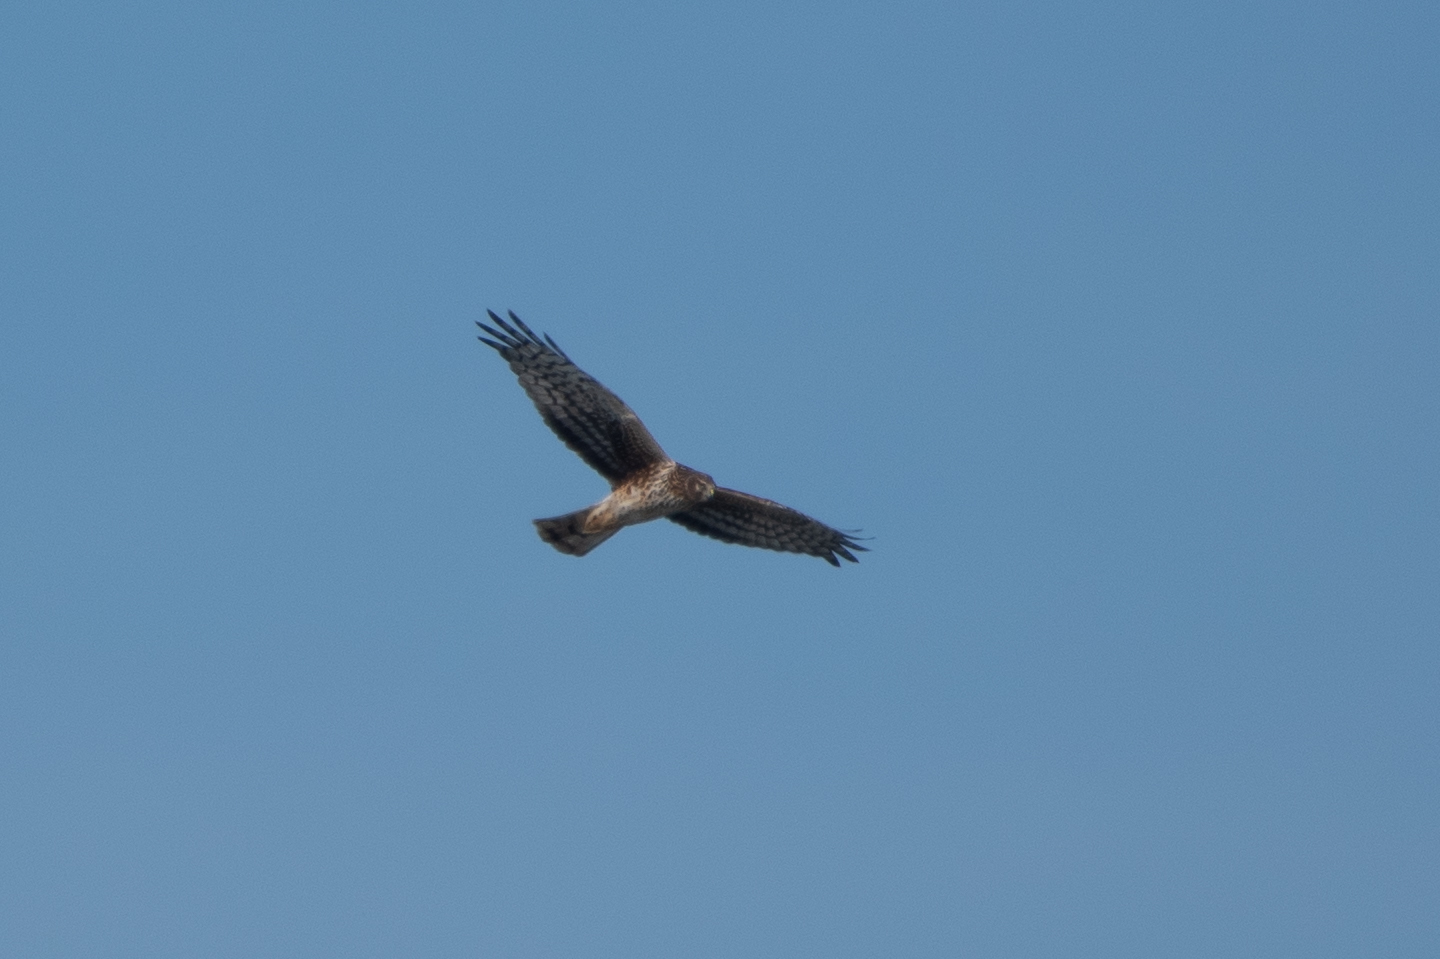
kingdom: Animalia
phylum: Chordata
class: Aves
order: Accipitriformes
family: Accipitridae
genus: Circus
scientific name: Circus cyaneus
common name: Hen harrier
